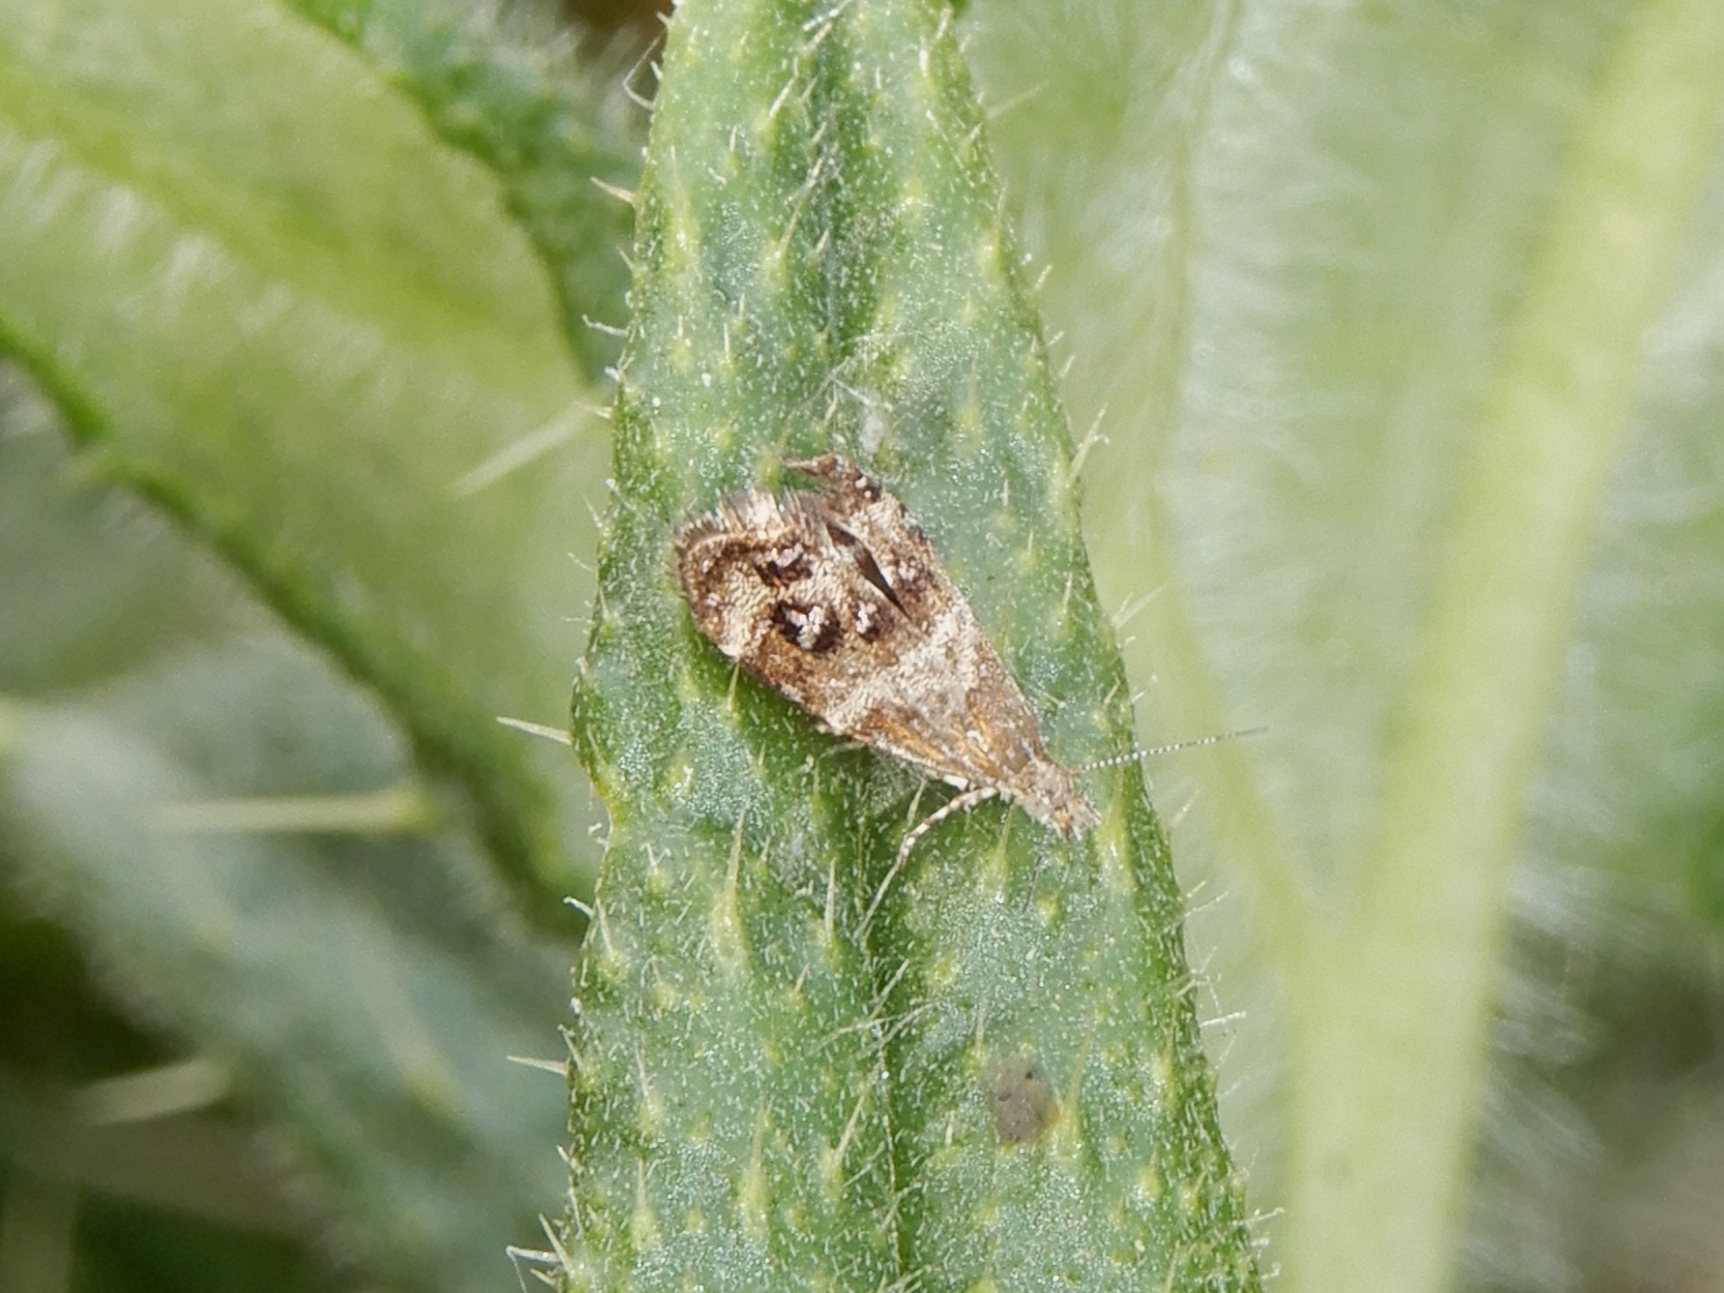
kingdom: Animalia
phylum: Arthropoda
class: Insecta
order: Lepidoptera
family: Choreutidae
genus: Tebenna
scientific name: Tebenna micalis
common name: Vagrant twitcher
